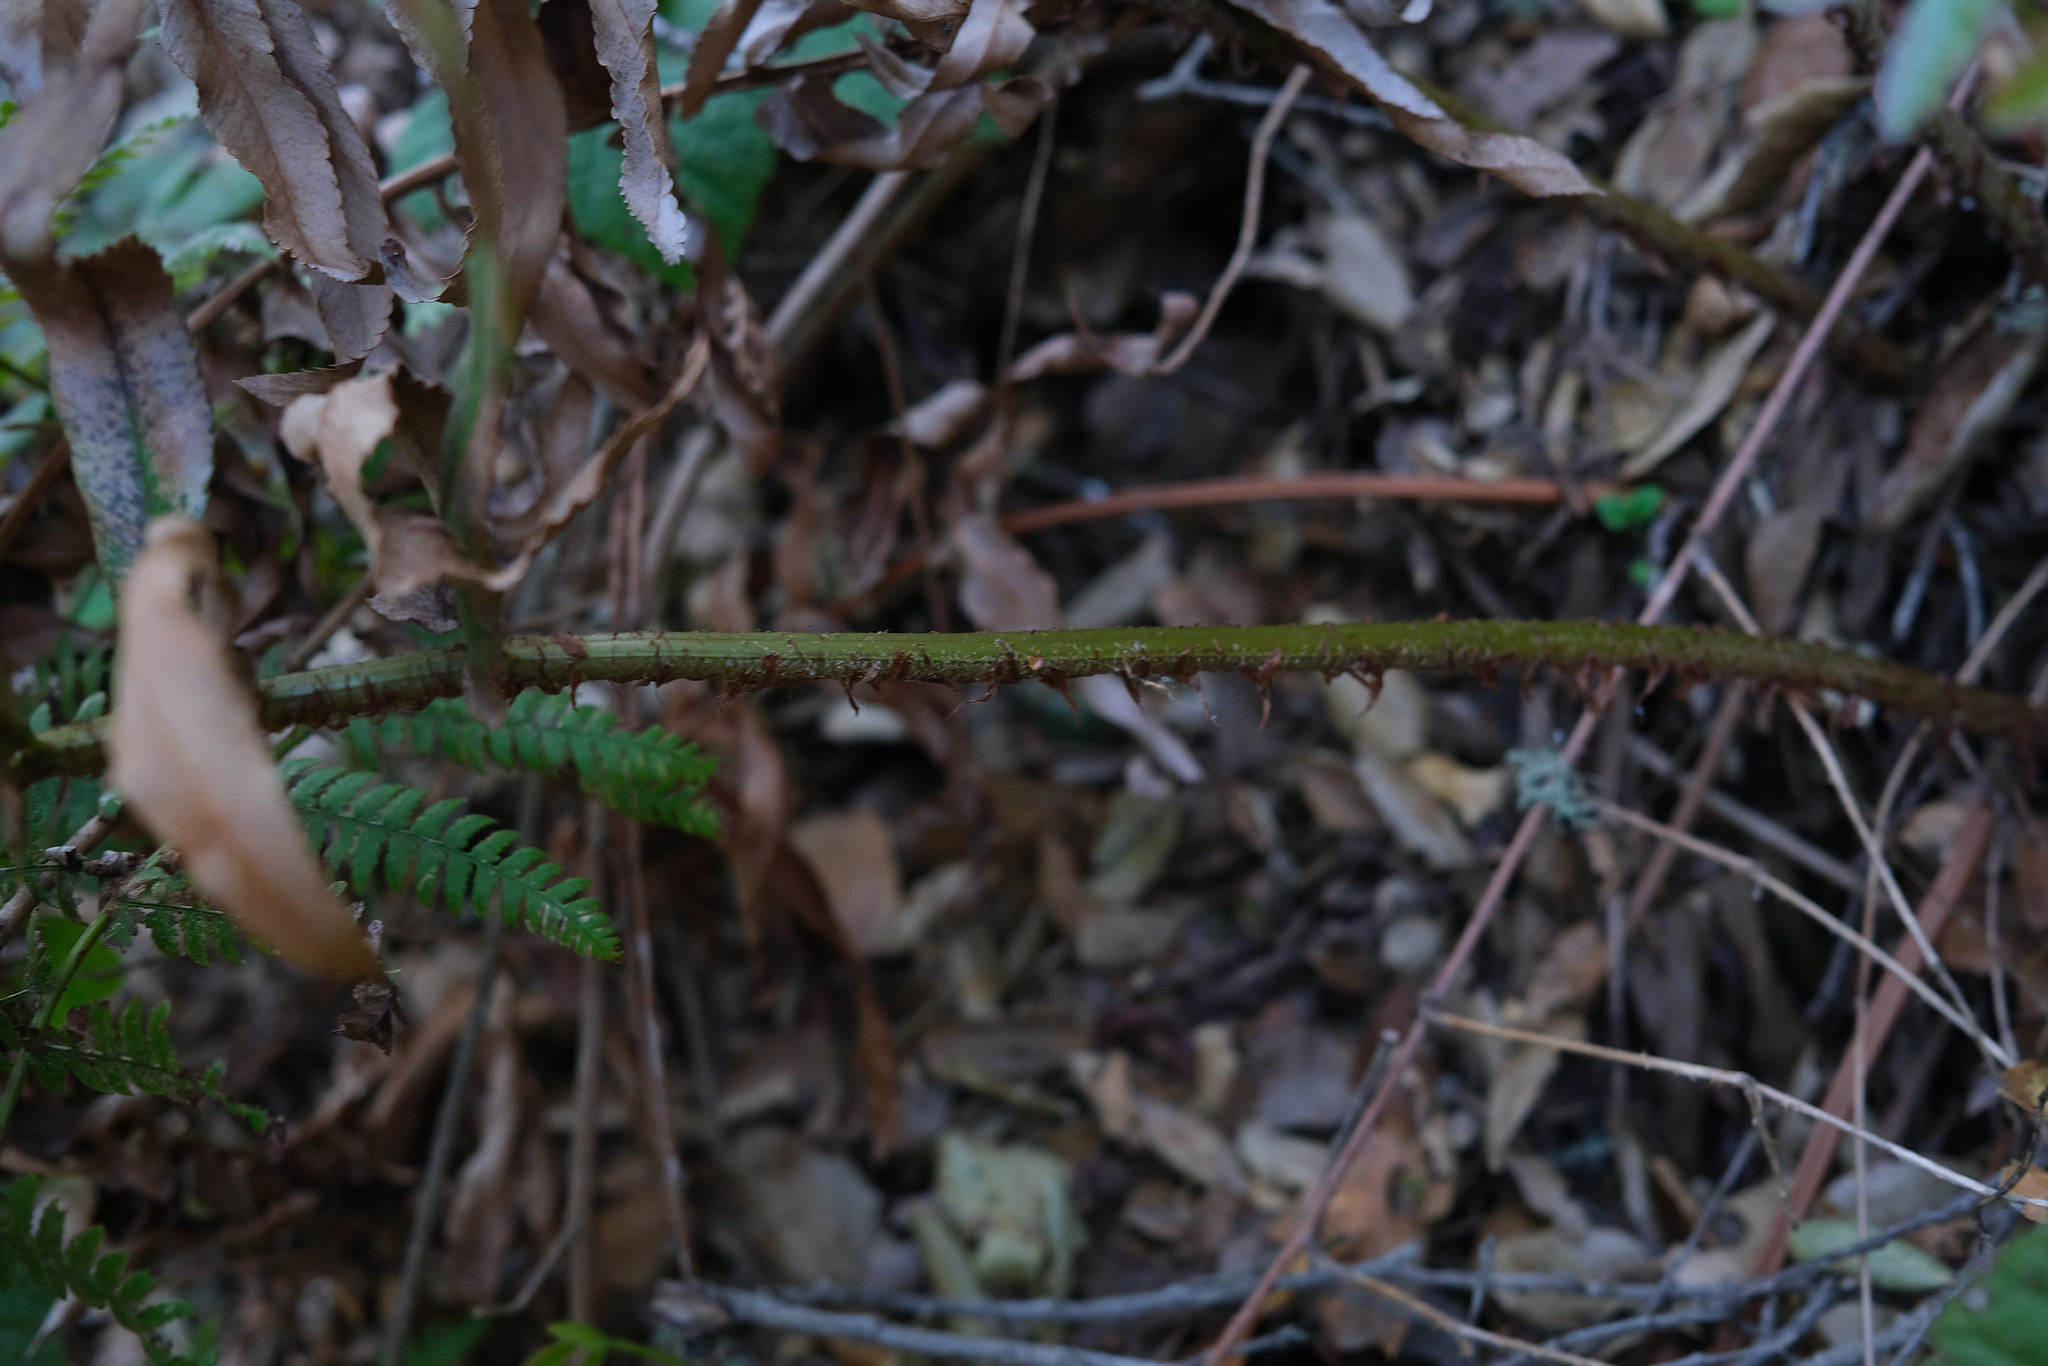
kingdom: Plantae
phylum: Tracheophyta
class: Polypodiopsida
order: Polypodiales
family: Dryopteridaceae
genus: Polystichum
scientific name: Polystichum munitum
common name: Western sword-fern
